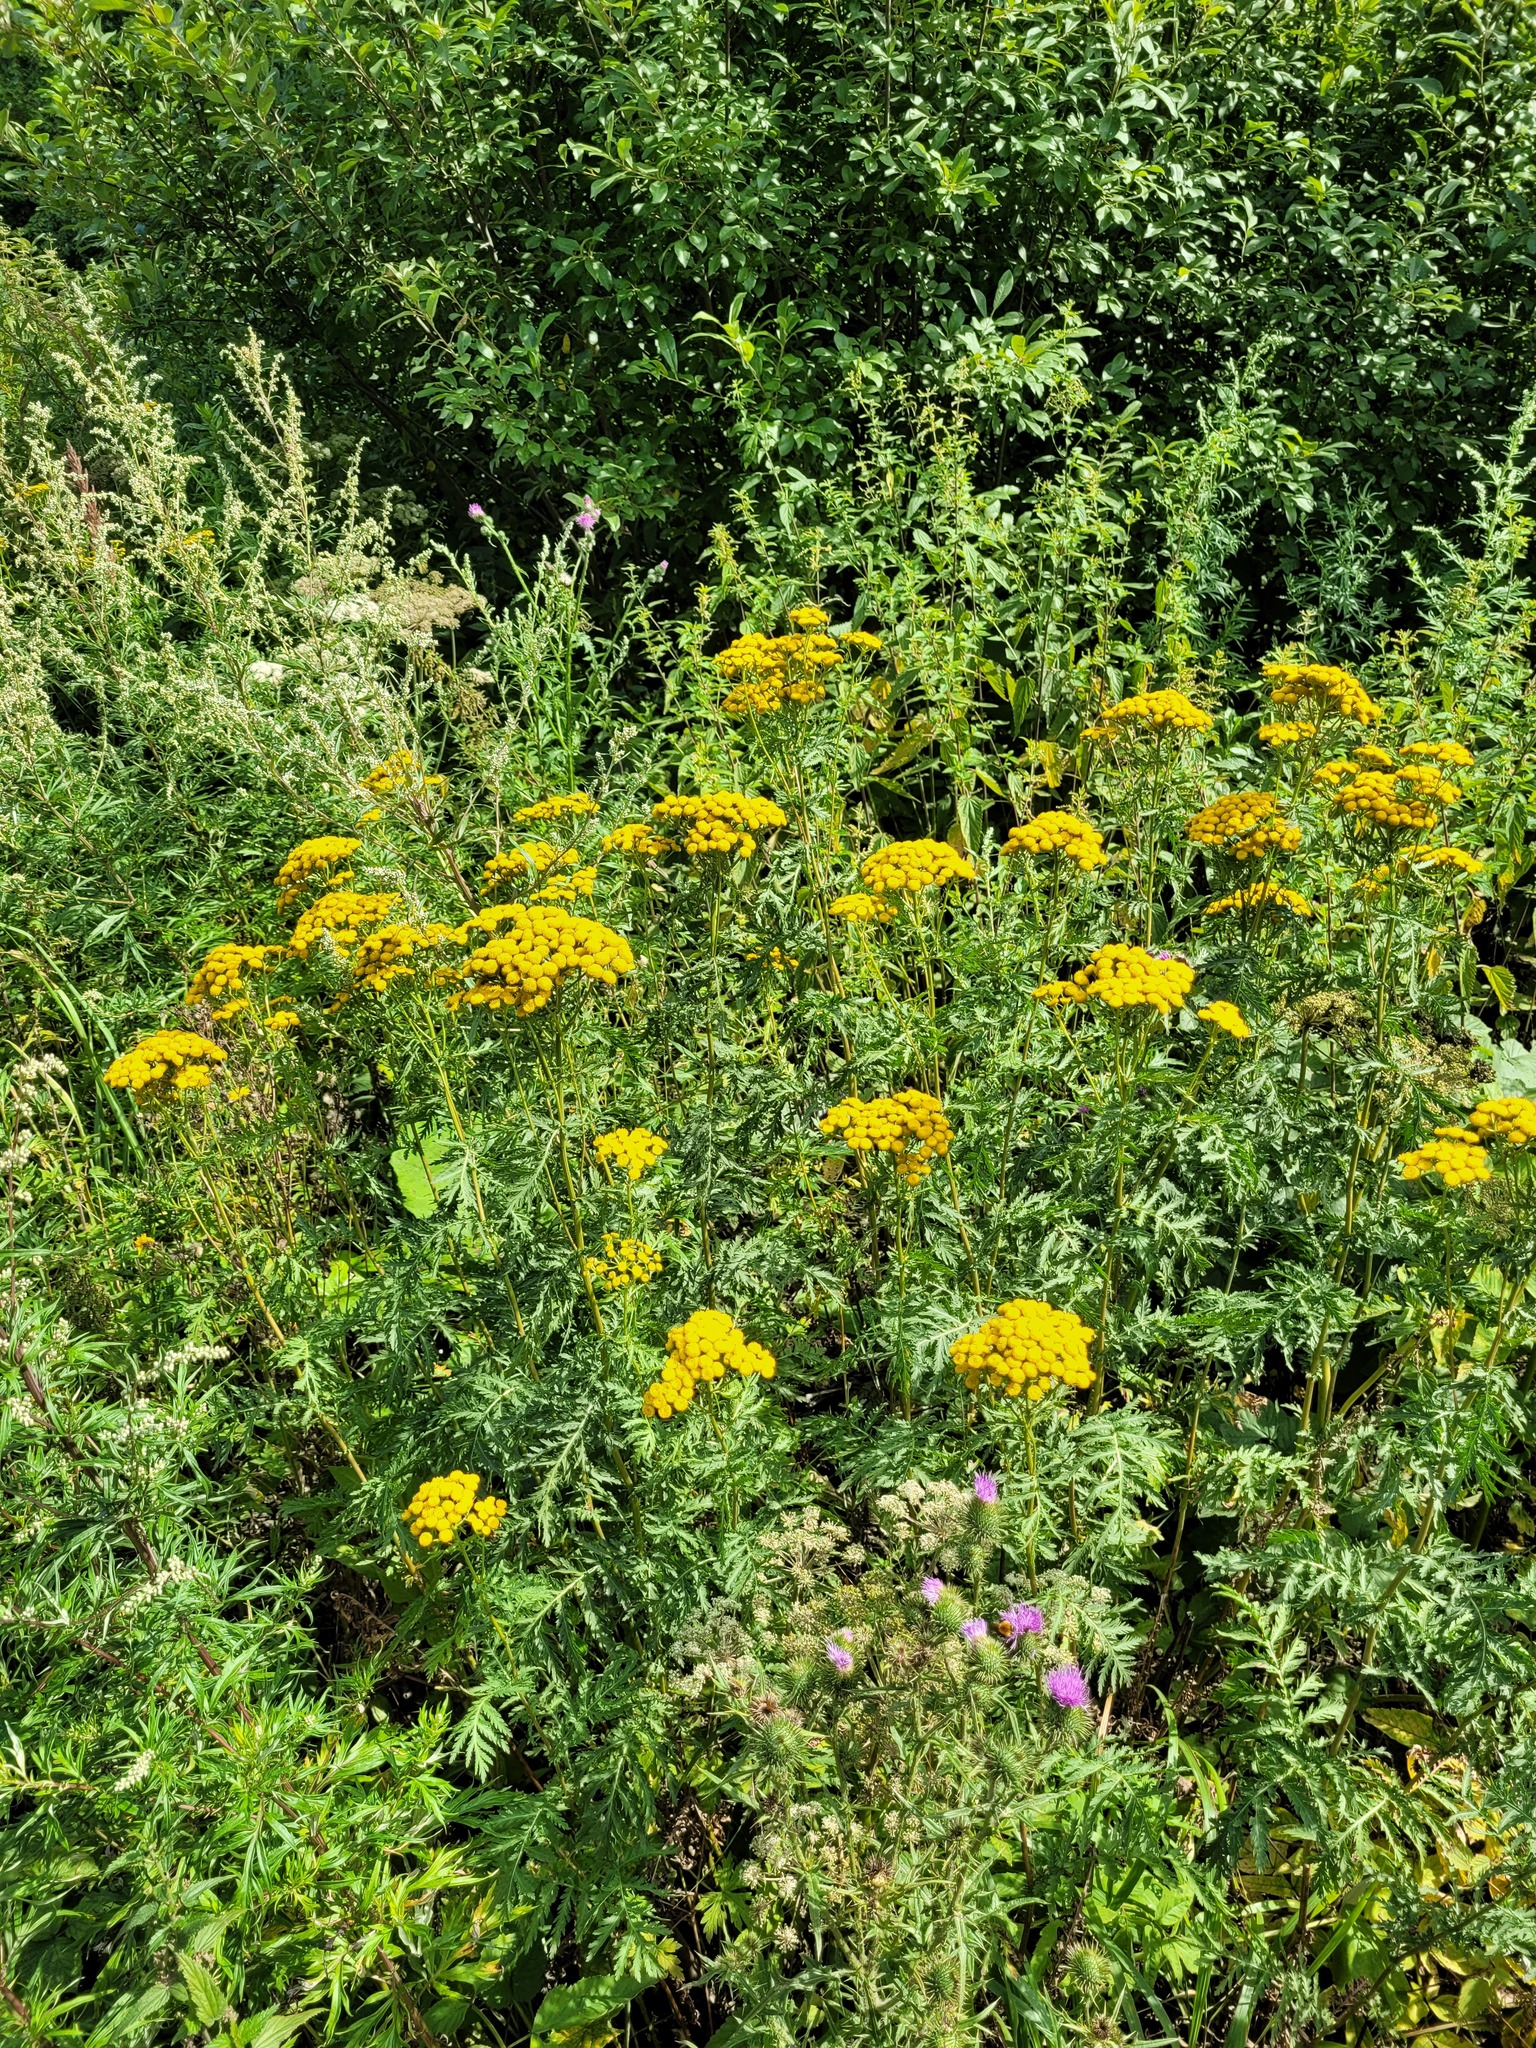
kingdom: Plantae
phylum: Tracheophyta
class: Magnoliopsida
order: Asterales
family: Asteraceae
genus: Tanacetum
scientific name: Tanacetum vulgare
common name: Common tansy
